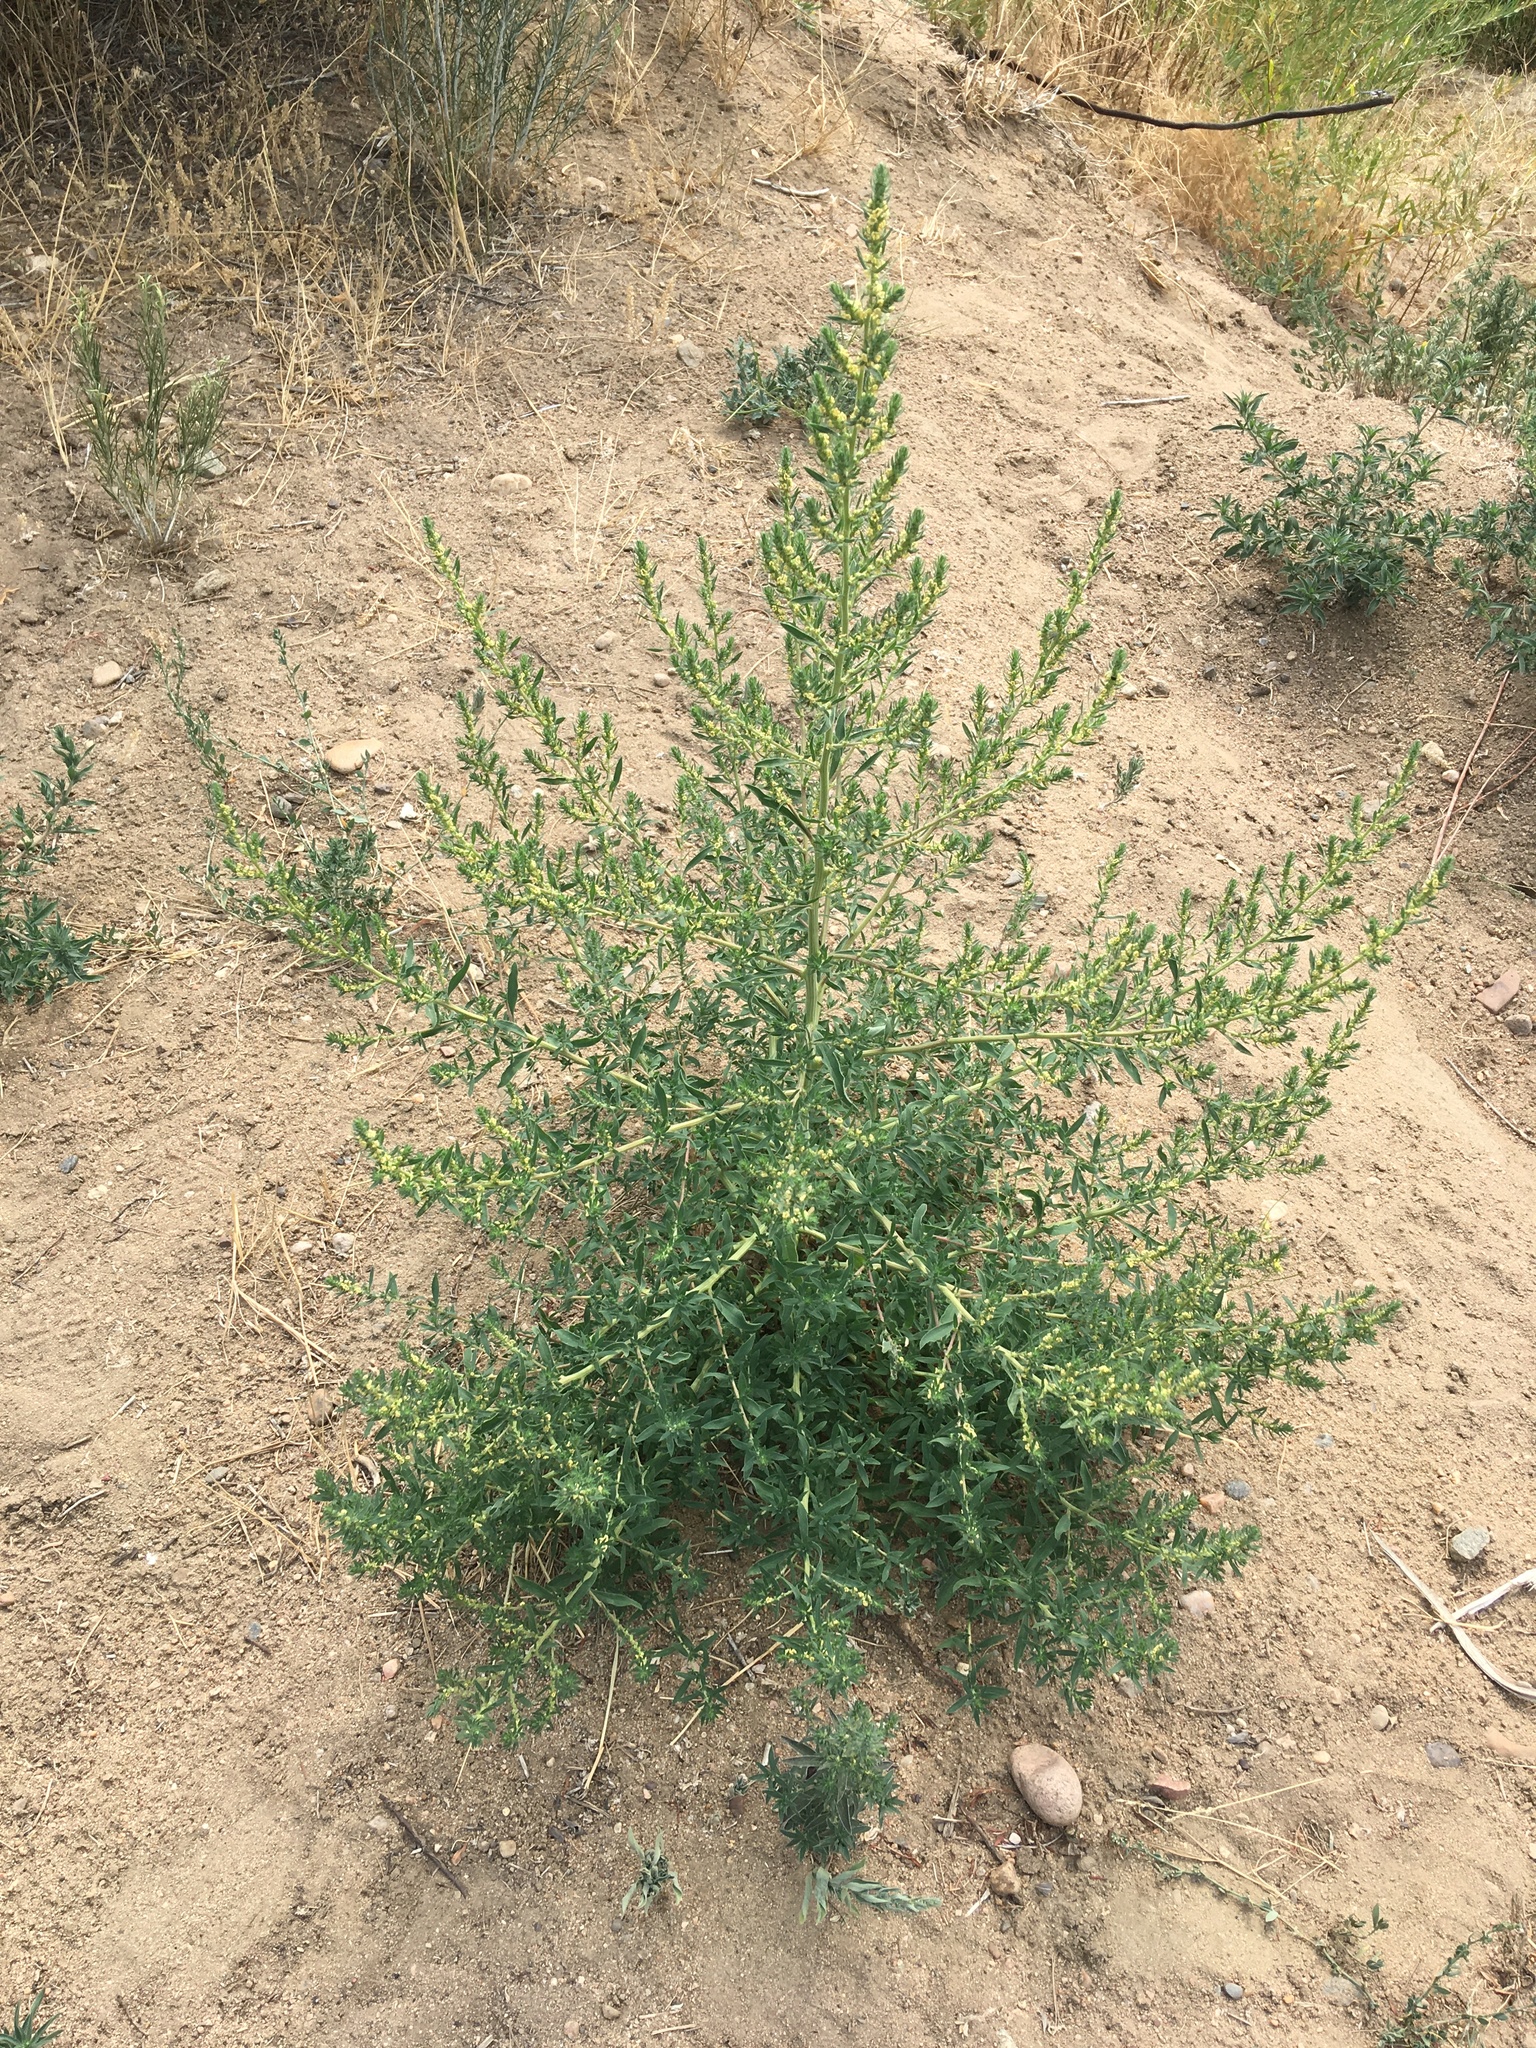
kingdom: Plantae
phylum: Tracheophyta
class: Magnoliopsida
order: Caryophyllales
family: Amaranthaceae
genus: Bassia
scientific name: Bassia scoparia
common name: Belvedere
